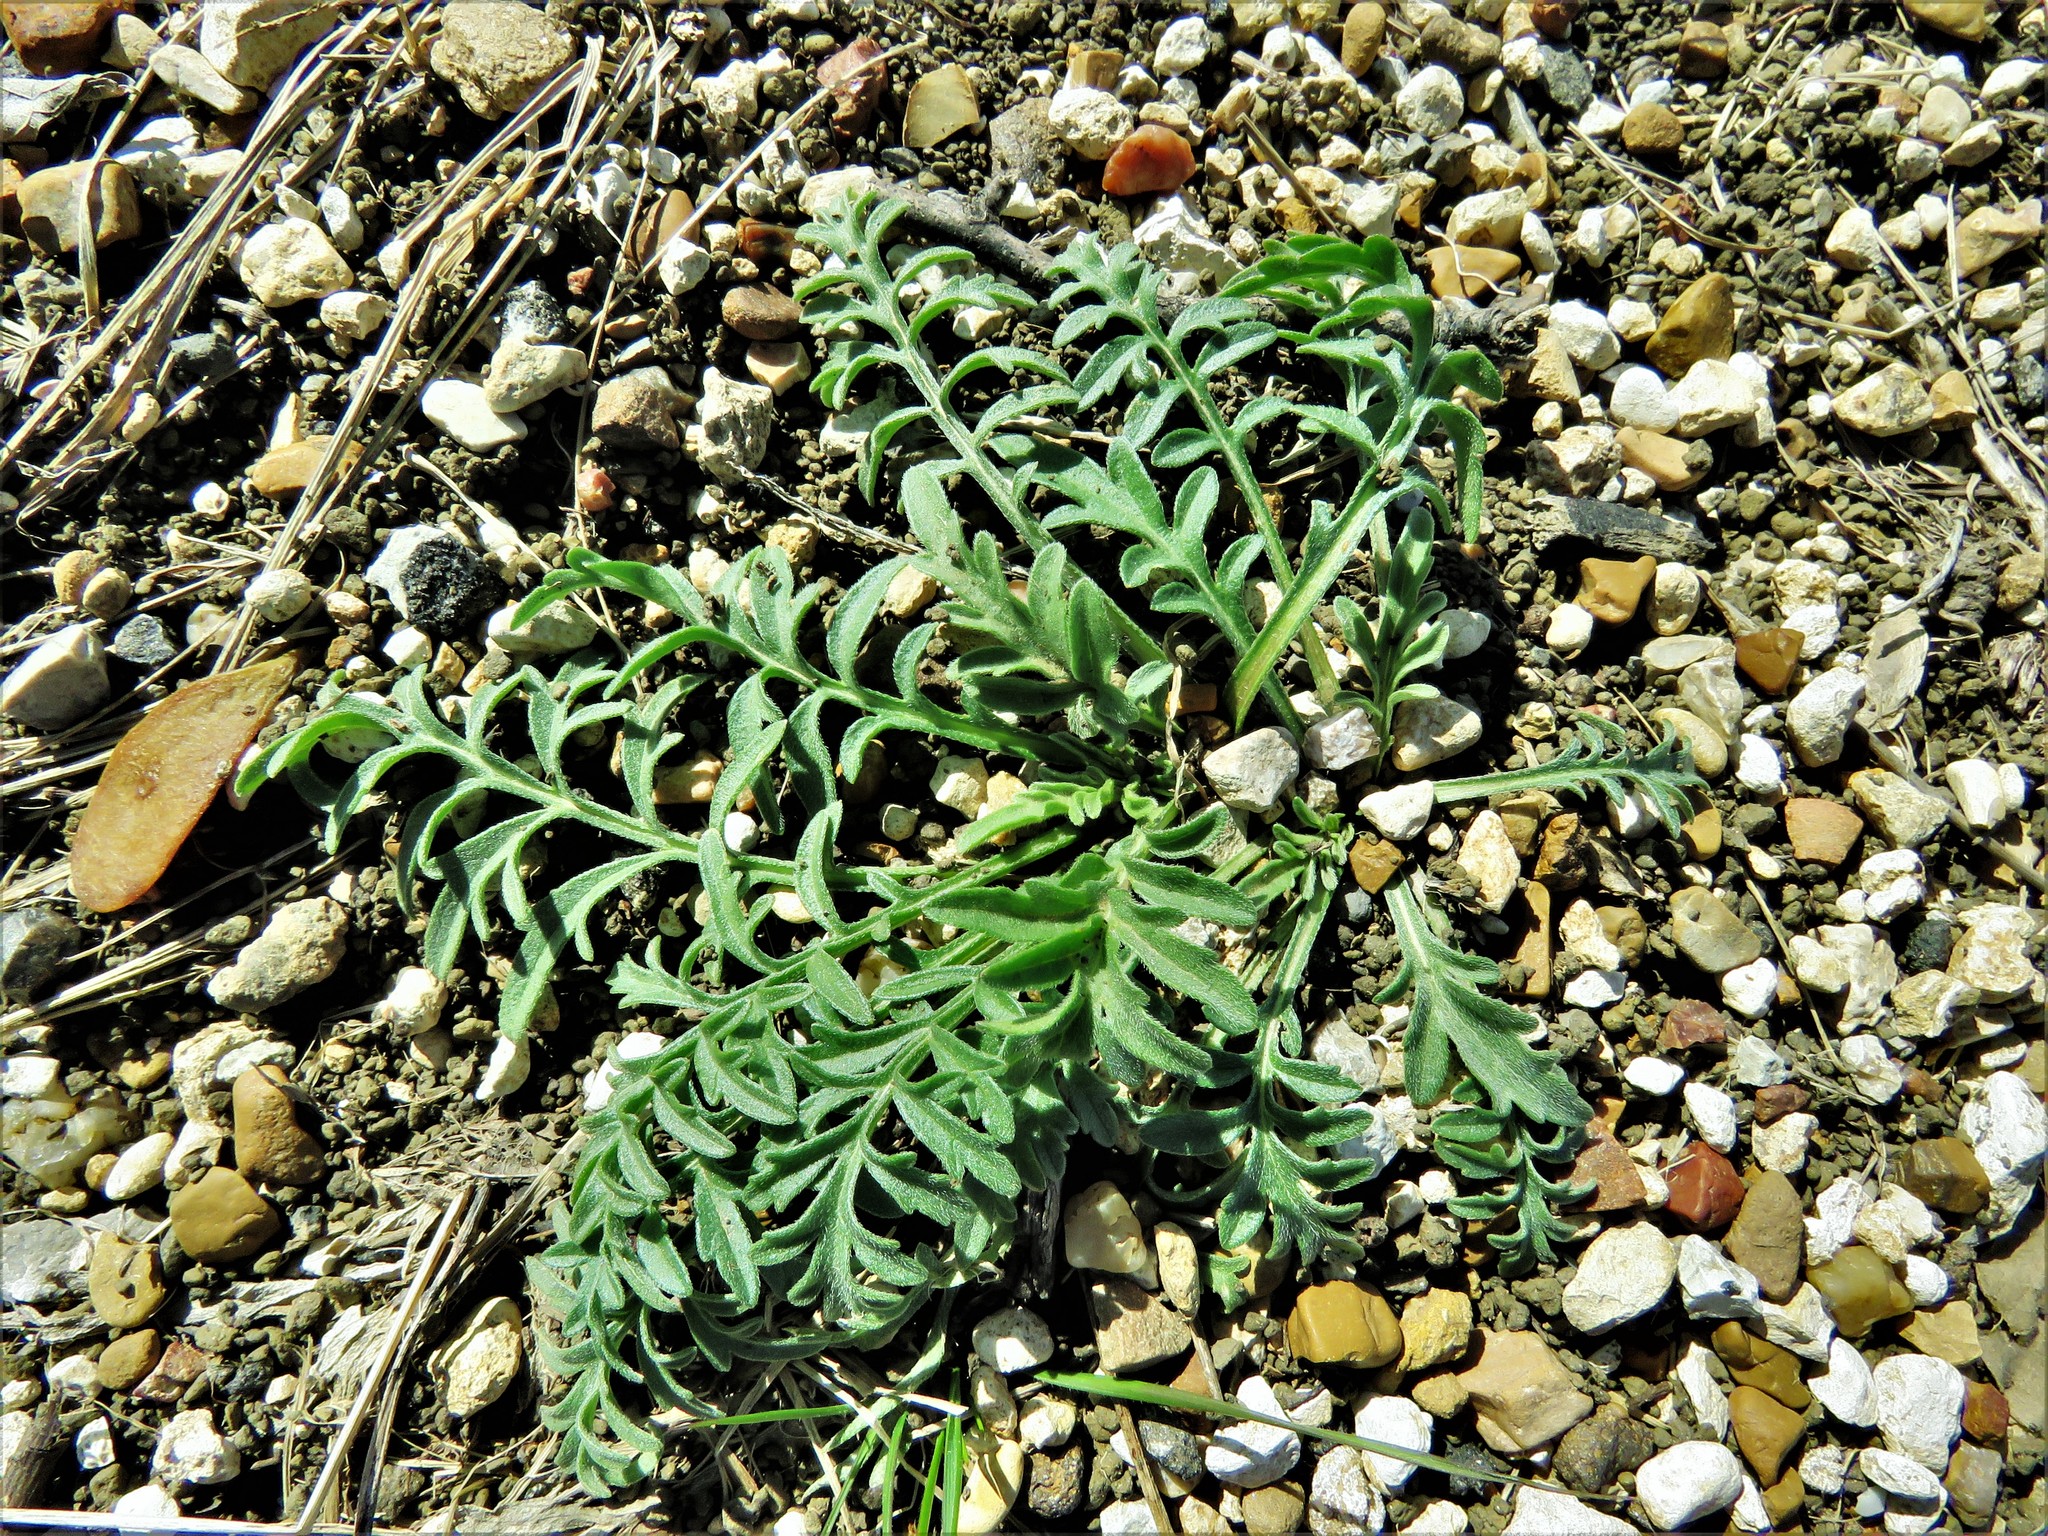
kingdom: Plantae
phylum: Tracheophyta
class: Magnoliopsida
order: Asterales
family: Asteraceae
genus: Ratibida
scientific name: Ratibida columnifera
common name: Prairie coneflower
